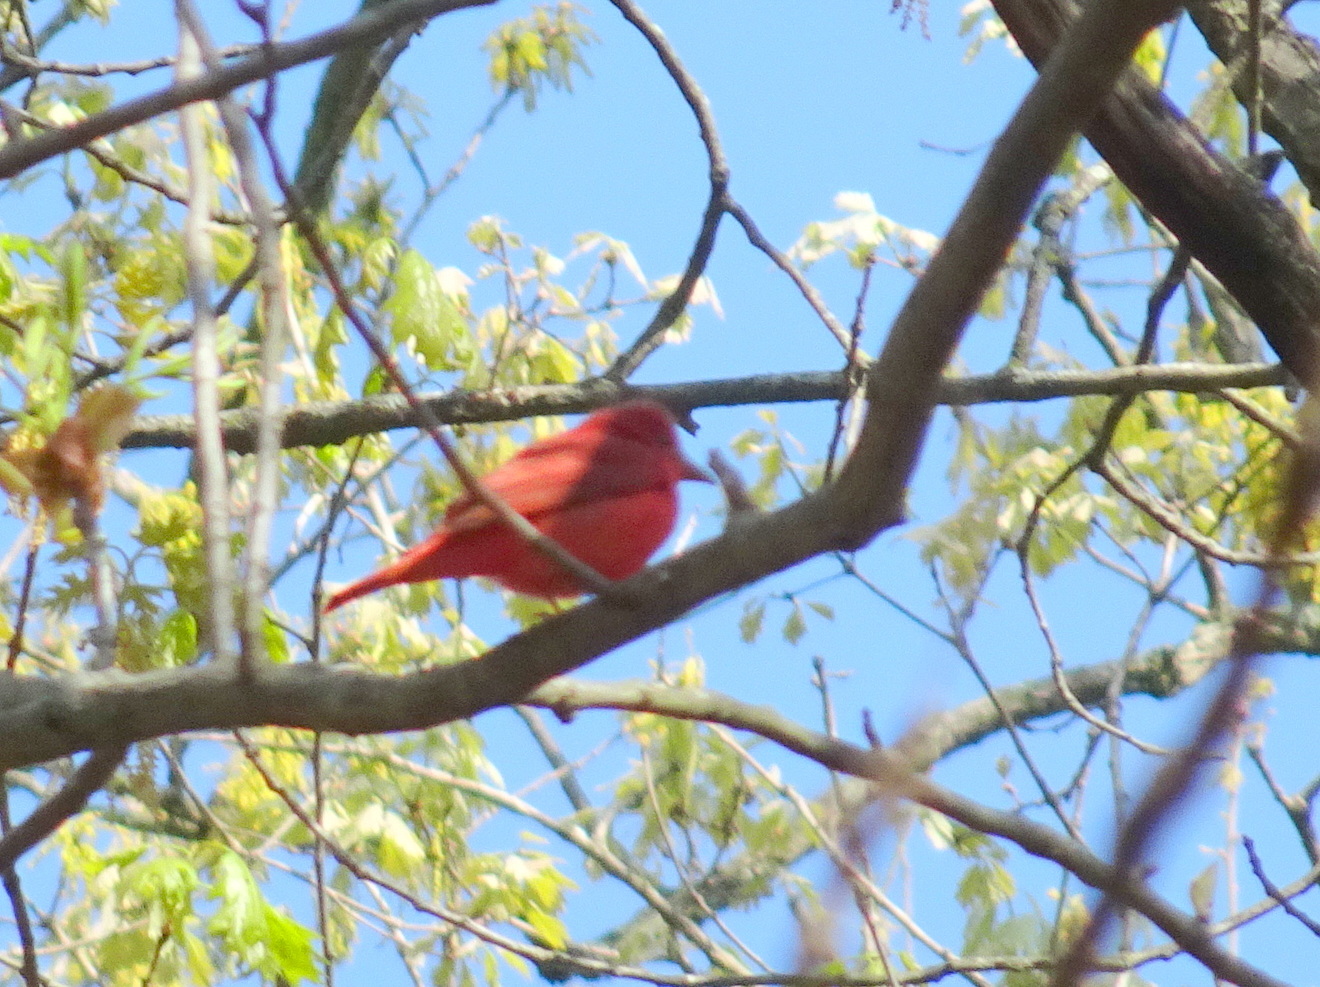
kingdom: Animalia
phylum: Chordata
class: Aves
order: Passeriformes
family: Cardinalidae
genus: Piranga
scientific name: Piranga rubra
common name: Summer tanager
